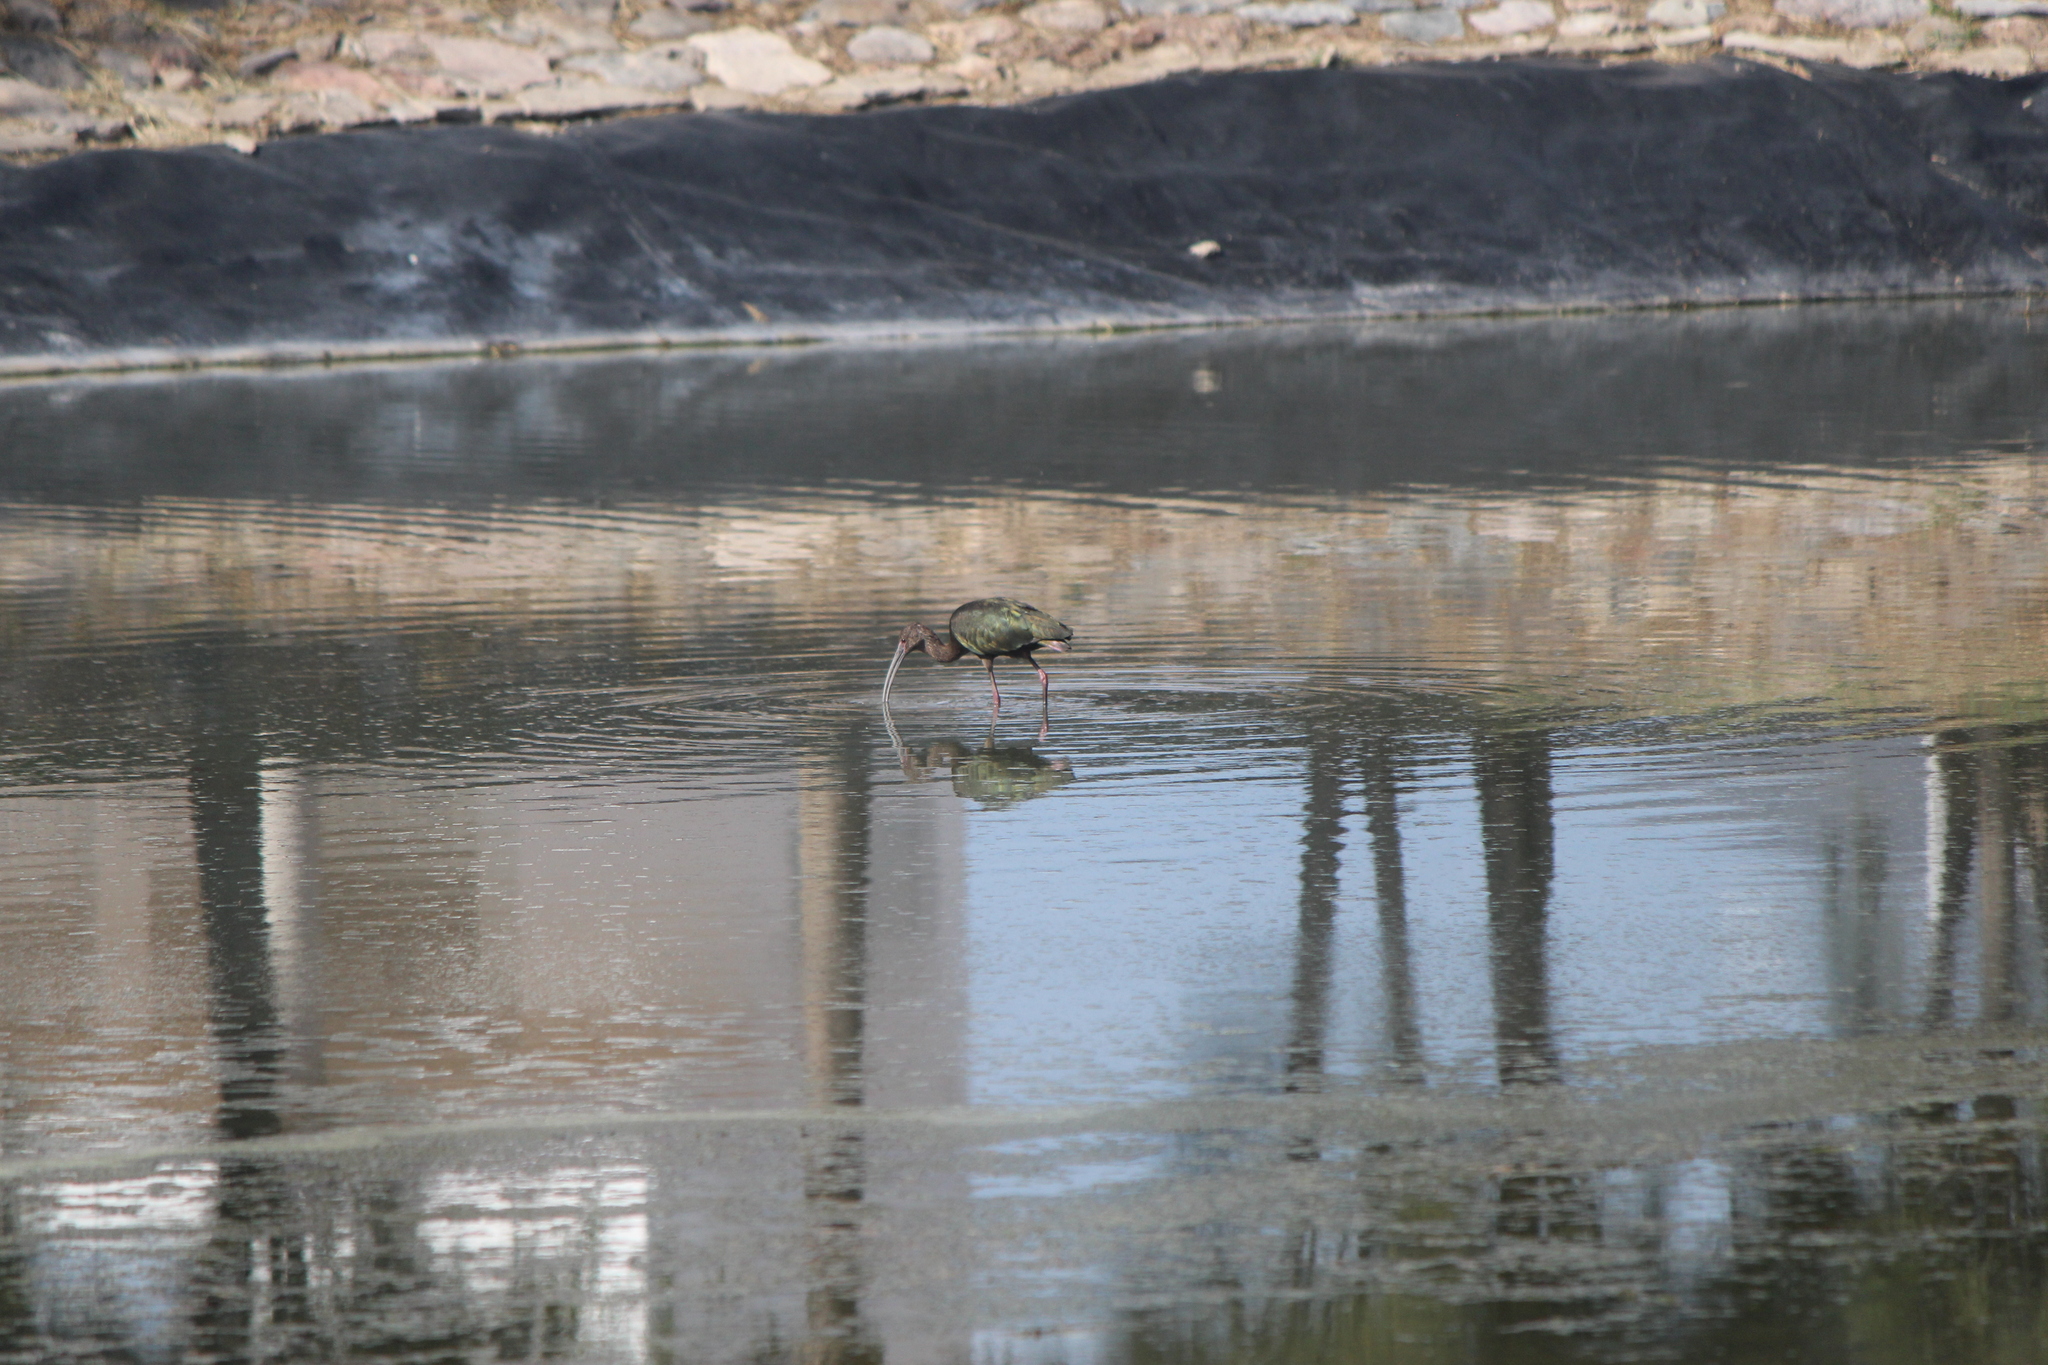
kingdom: Animalia
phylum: Chordata
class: Aves
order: Pelecaniformes
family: Threskiornithidae
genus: Plegadis
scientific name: Plegadis chihi
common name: White-faced ibis
